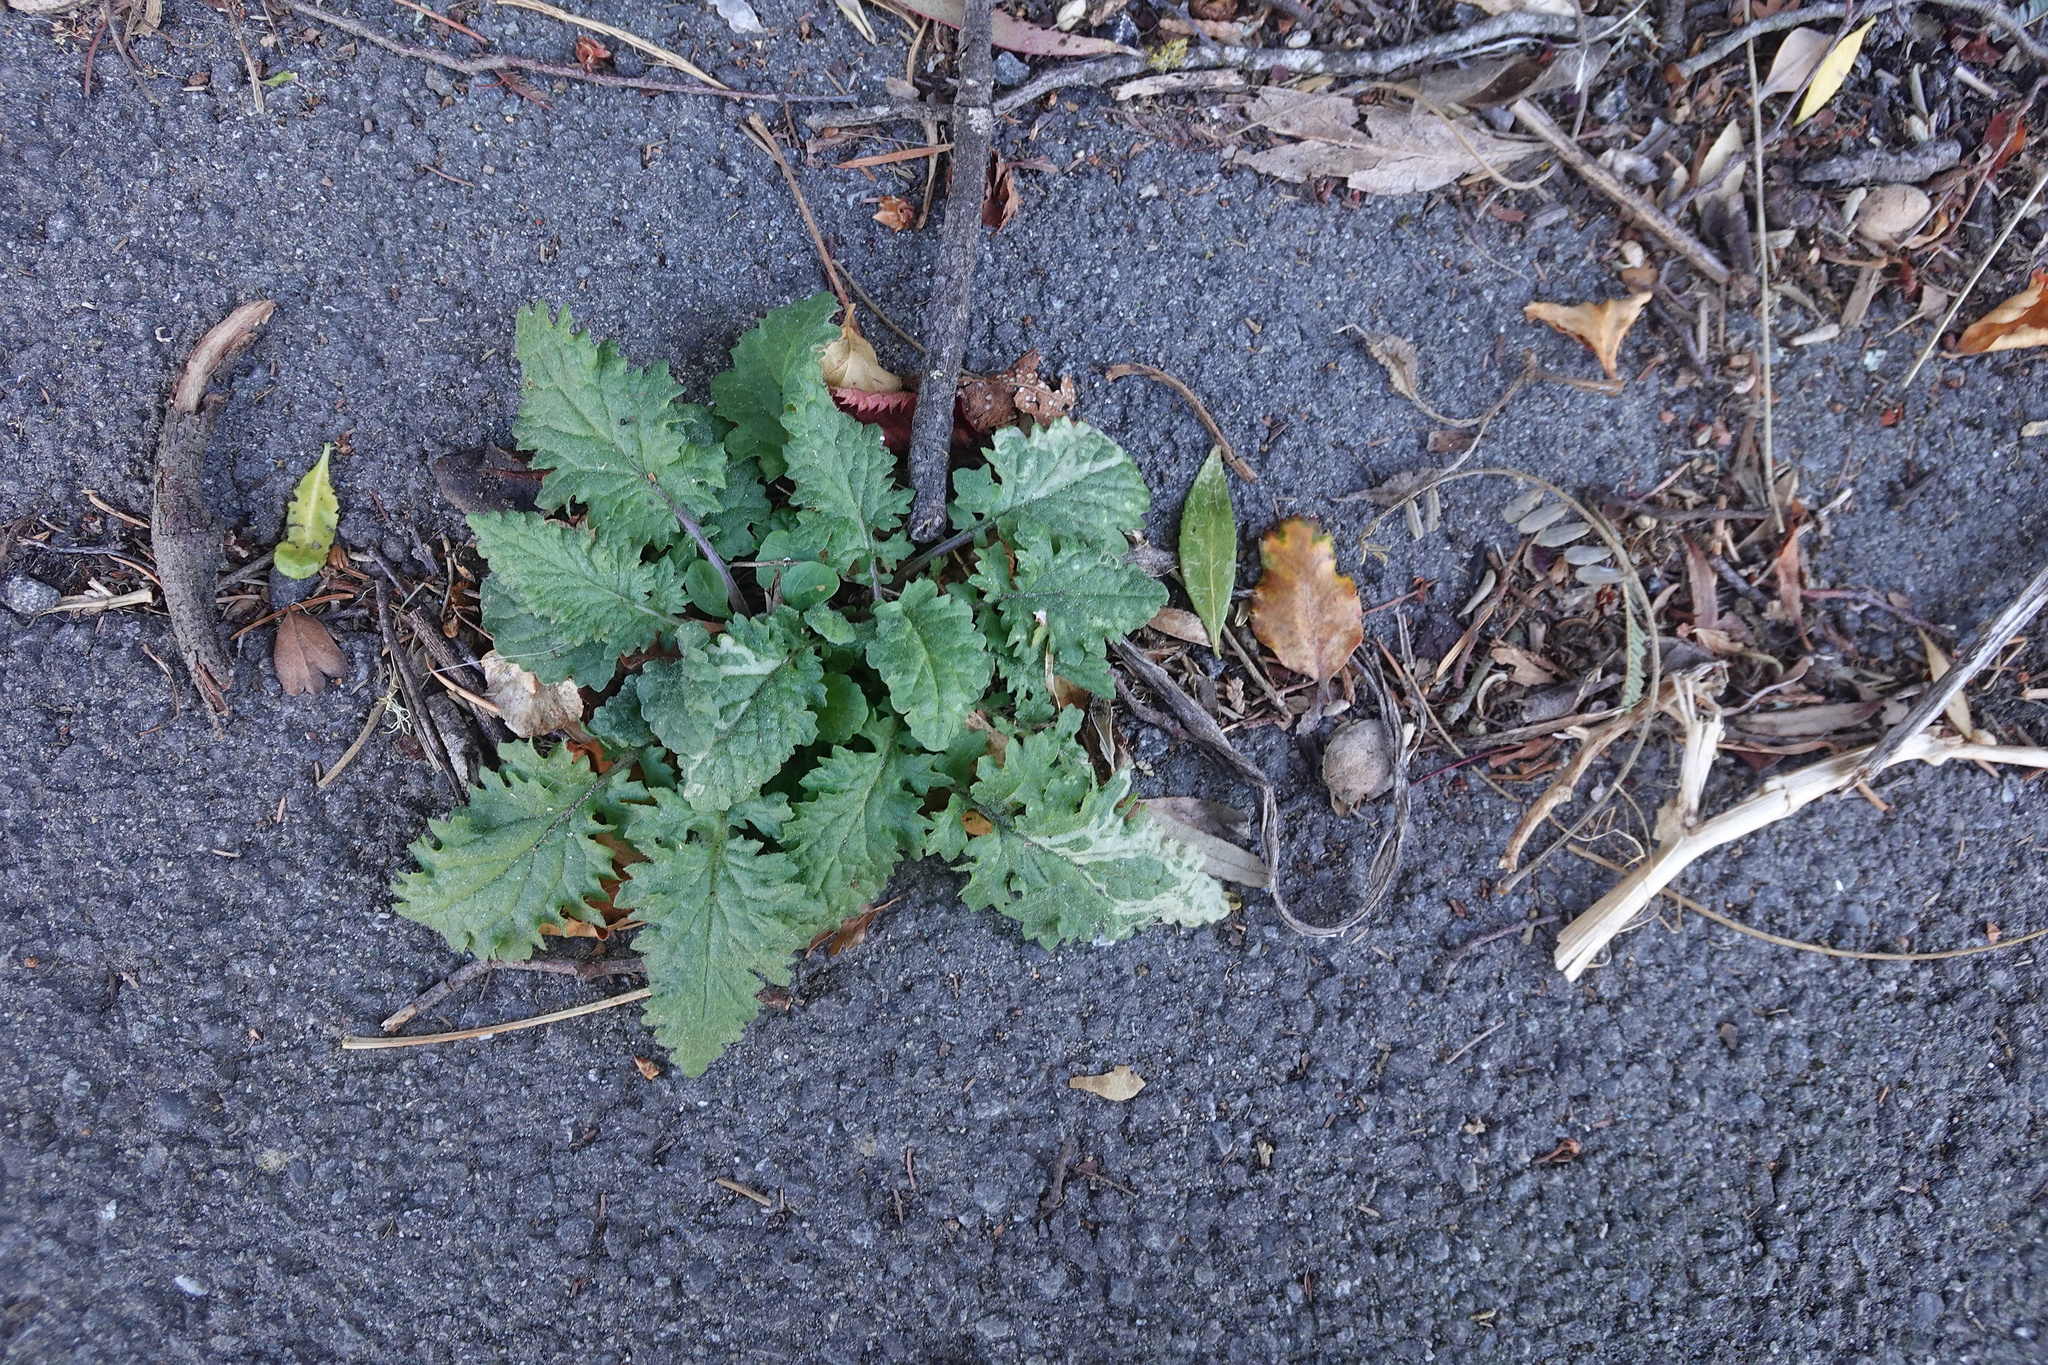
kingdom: Plantae
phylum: Tracheophyta
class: Magnoliopsida
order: Asterales
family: Asteraceae
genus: Jacobaea
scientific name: Jacobaea vulgaris
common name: Stinking willie
